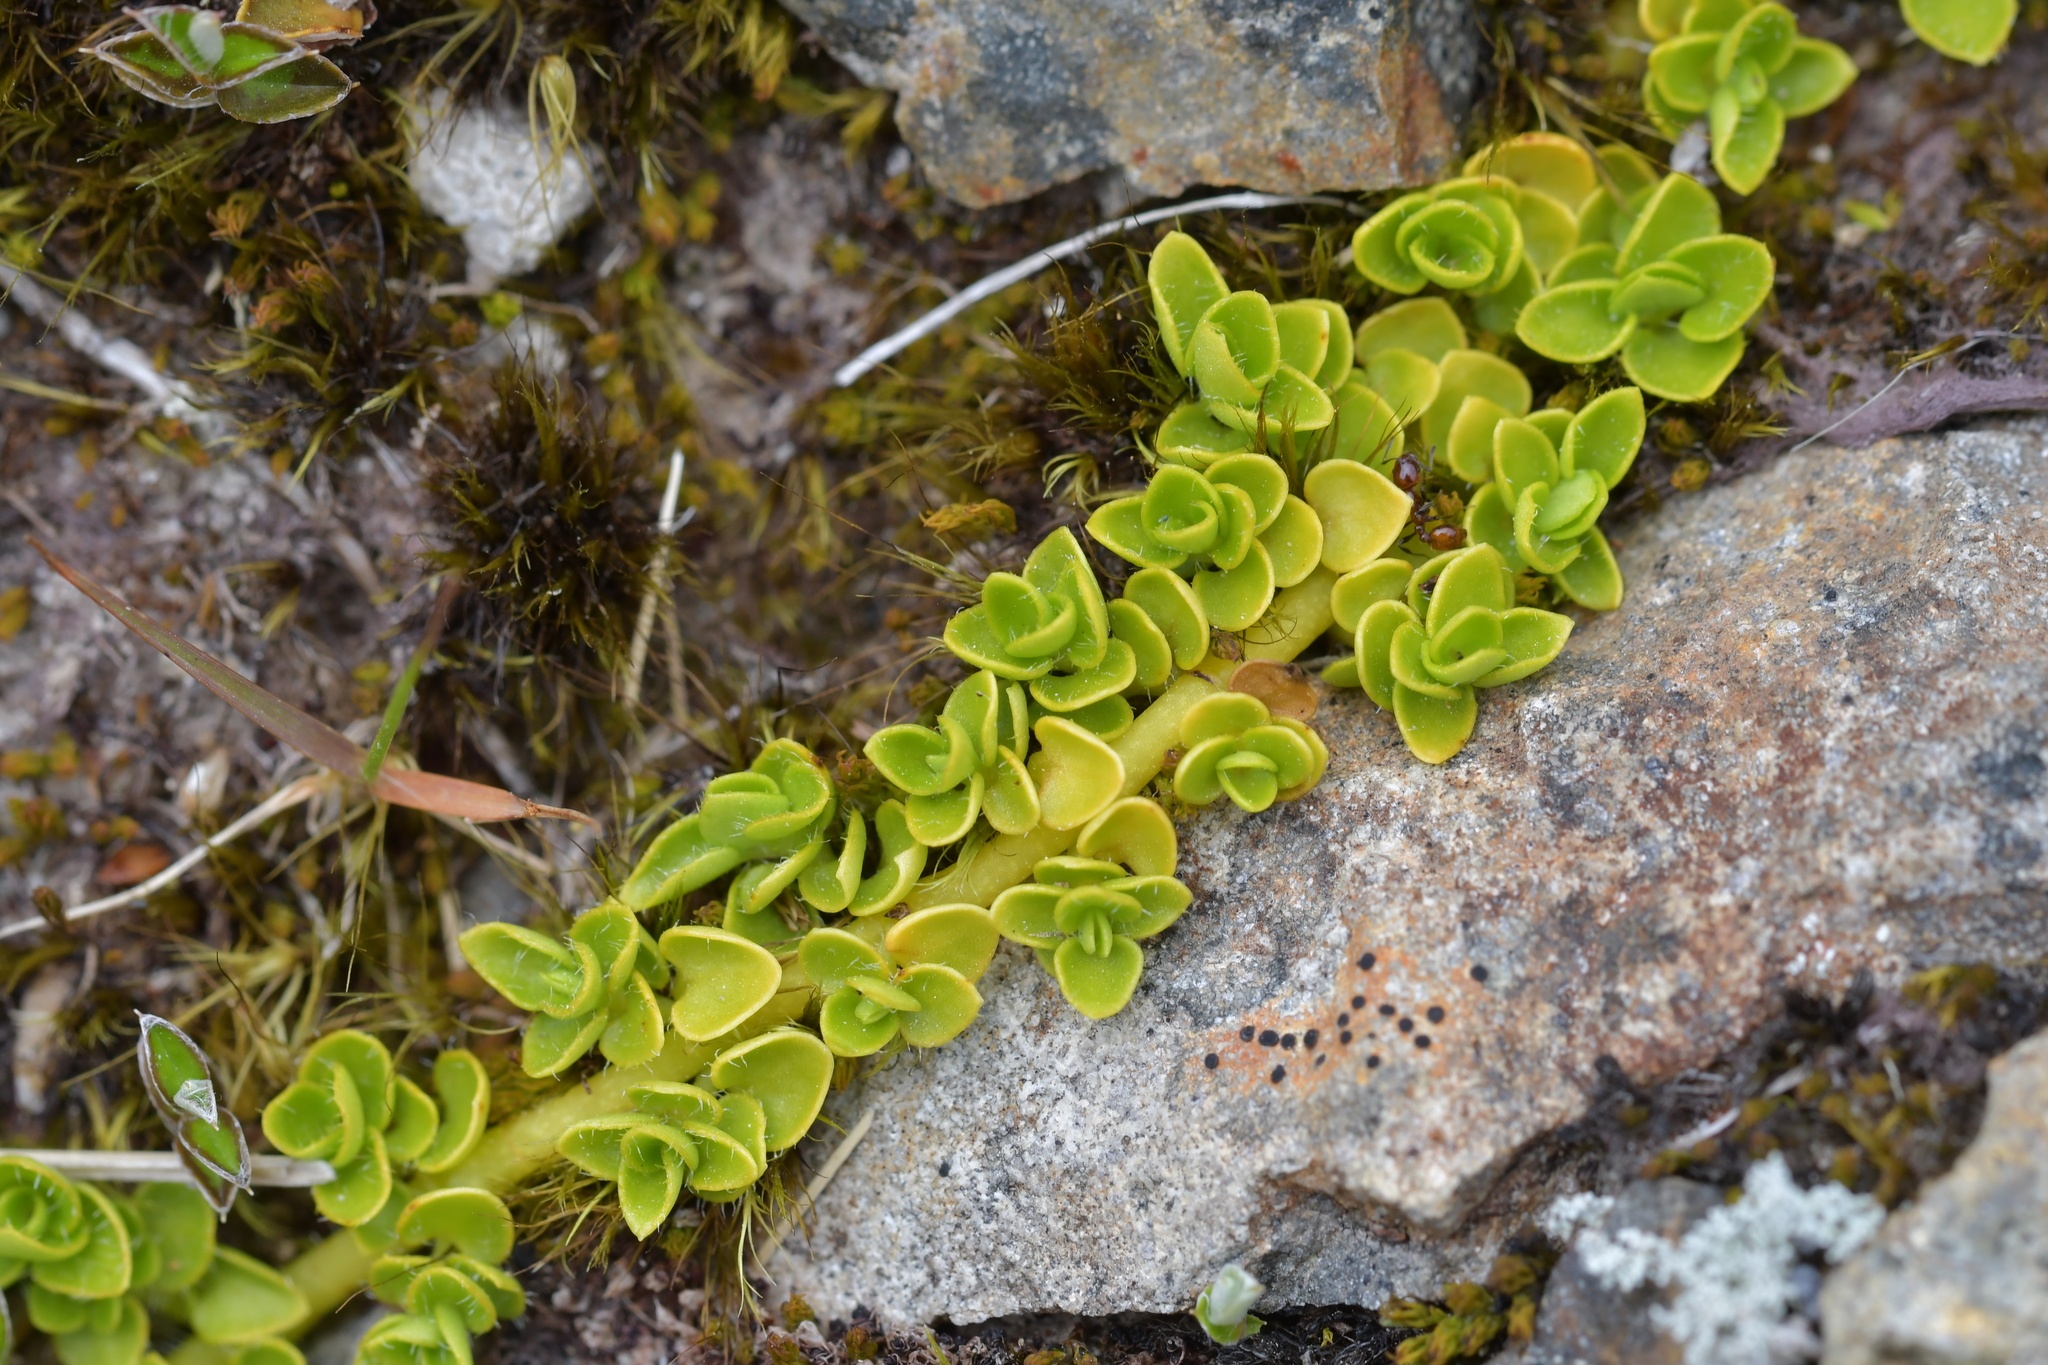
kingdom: Plantae
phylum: Tracheophyta
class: Magnoliopsida
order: Gentianales
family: Rubiaceae
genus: Nertera
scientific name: Nertera ciliata
